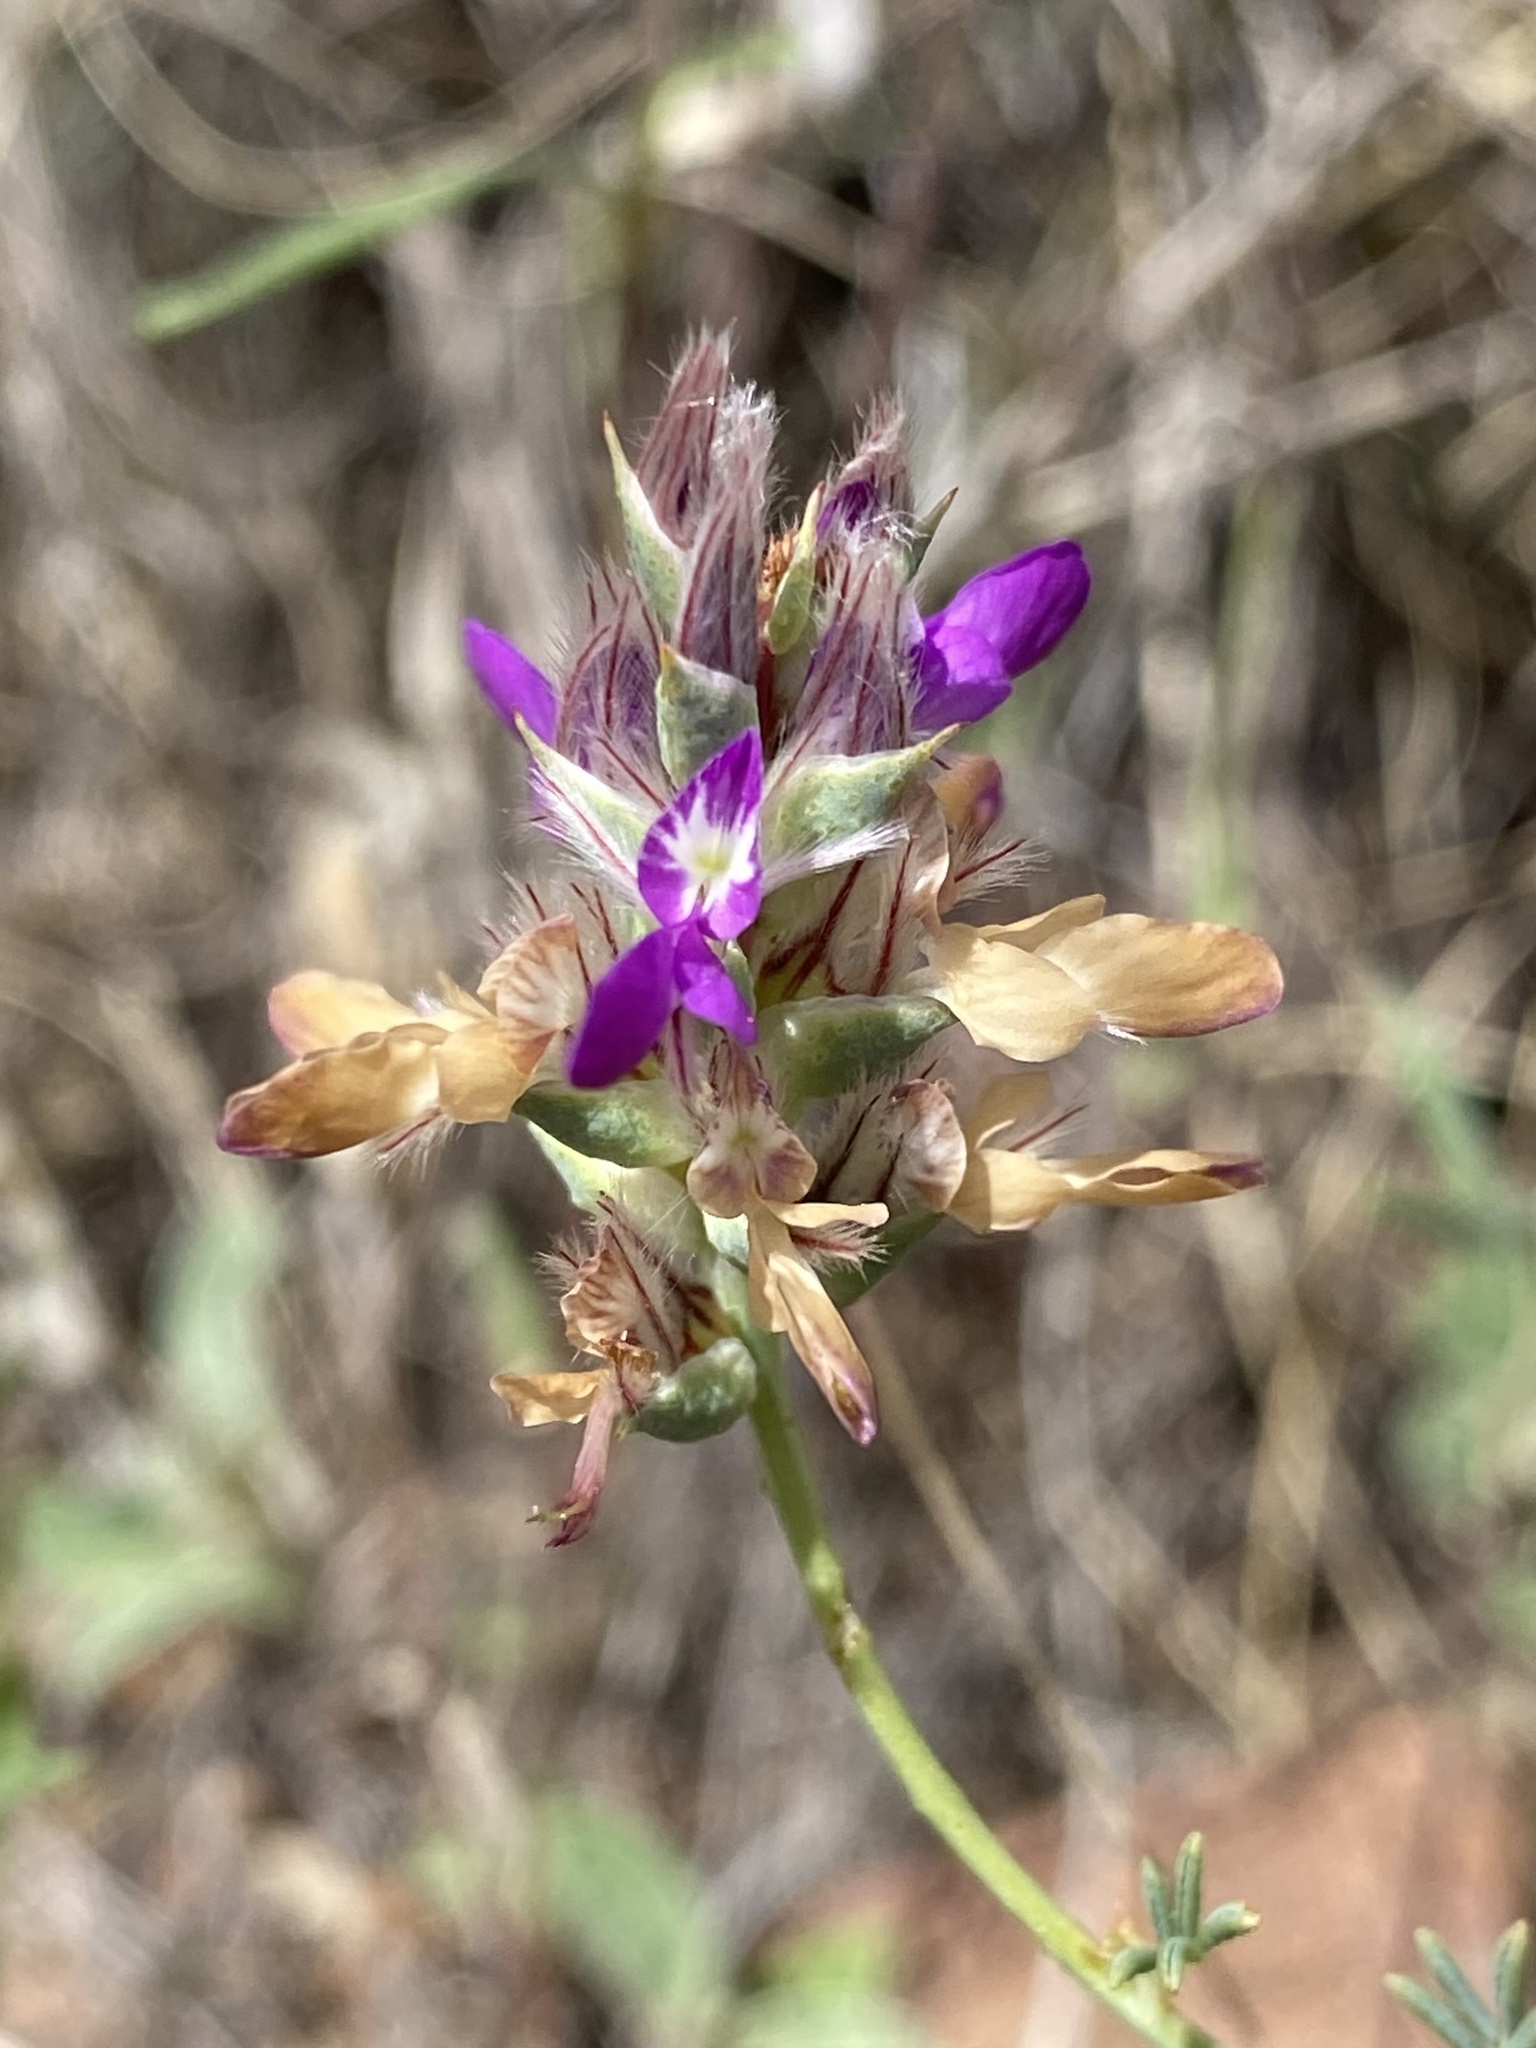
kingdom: Plantae
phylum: Tracheophyta
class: Magnoliopsida
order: Fabales
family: Fabaceae
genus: Dalea
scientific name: Dalea pogonathera
